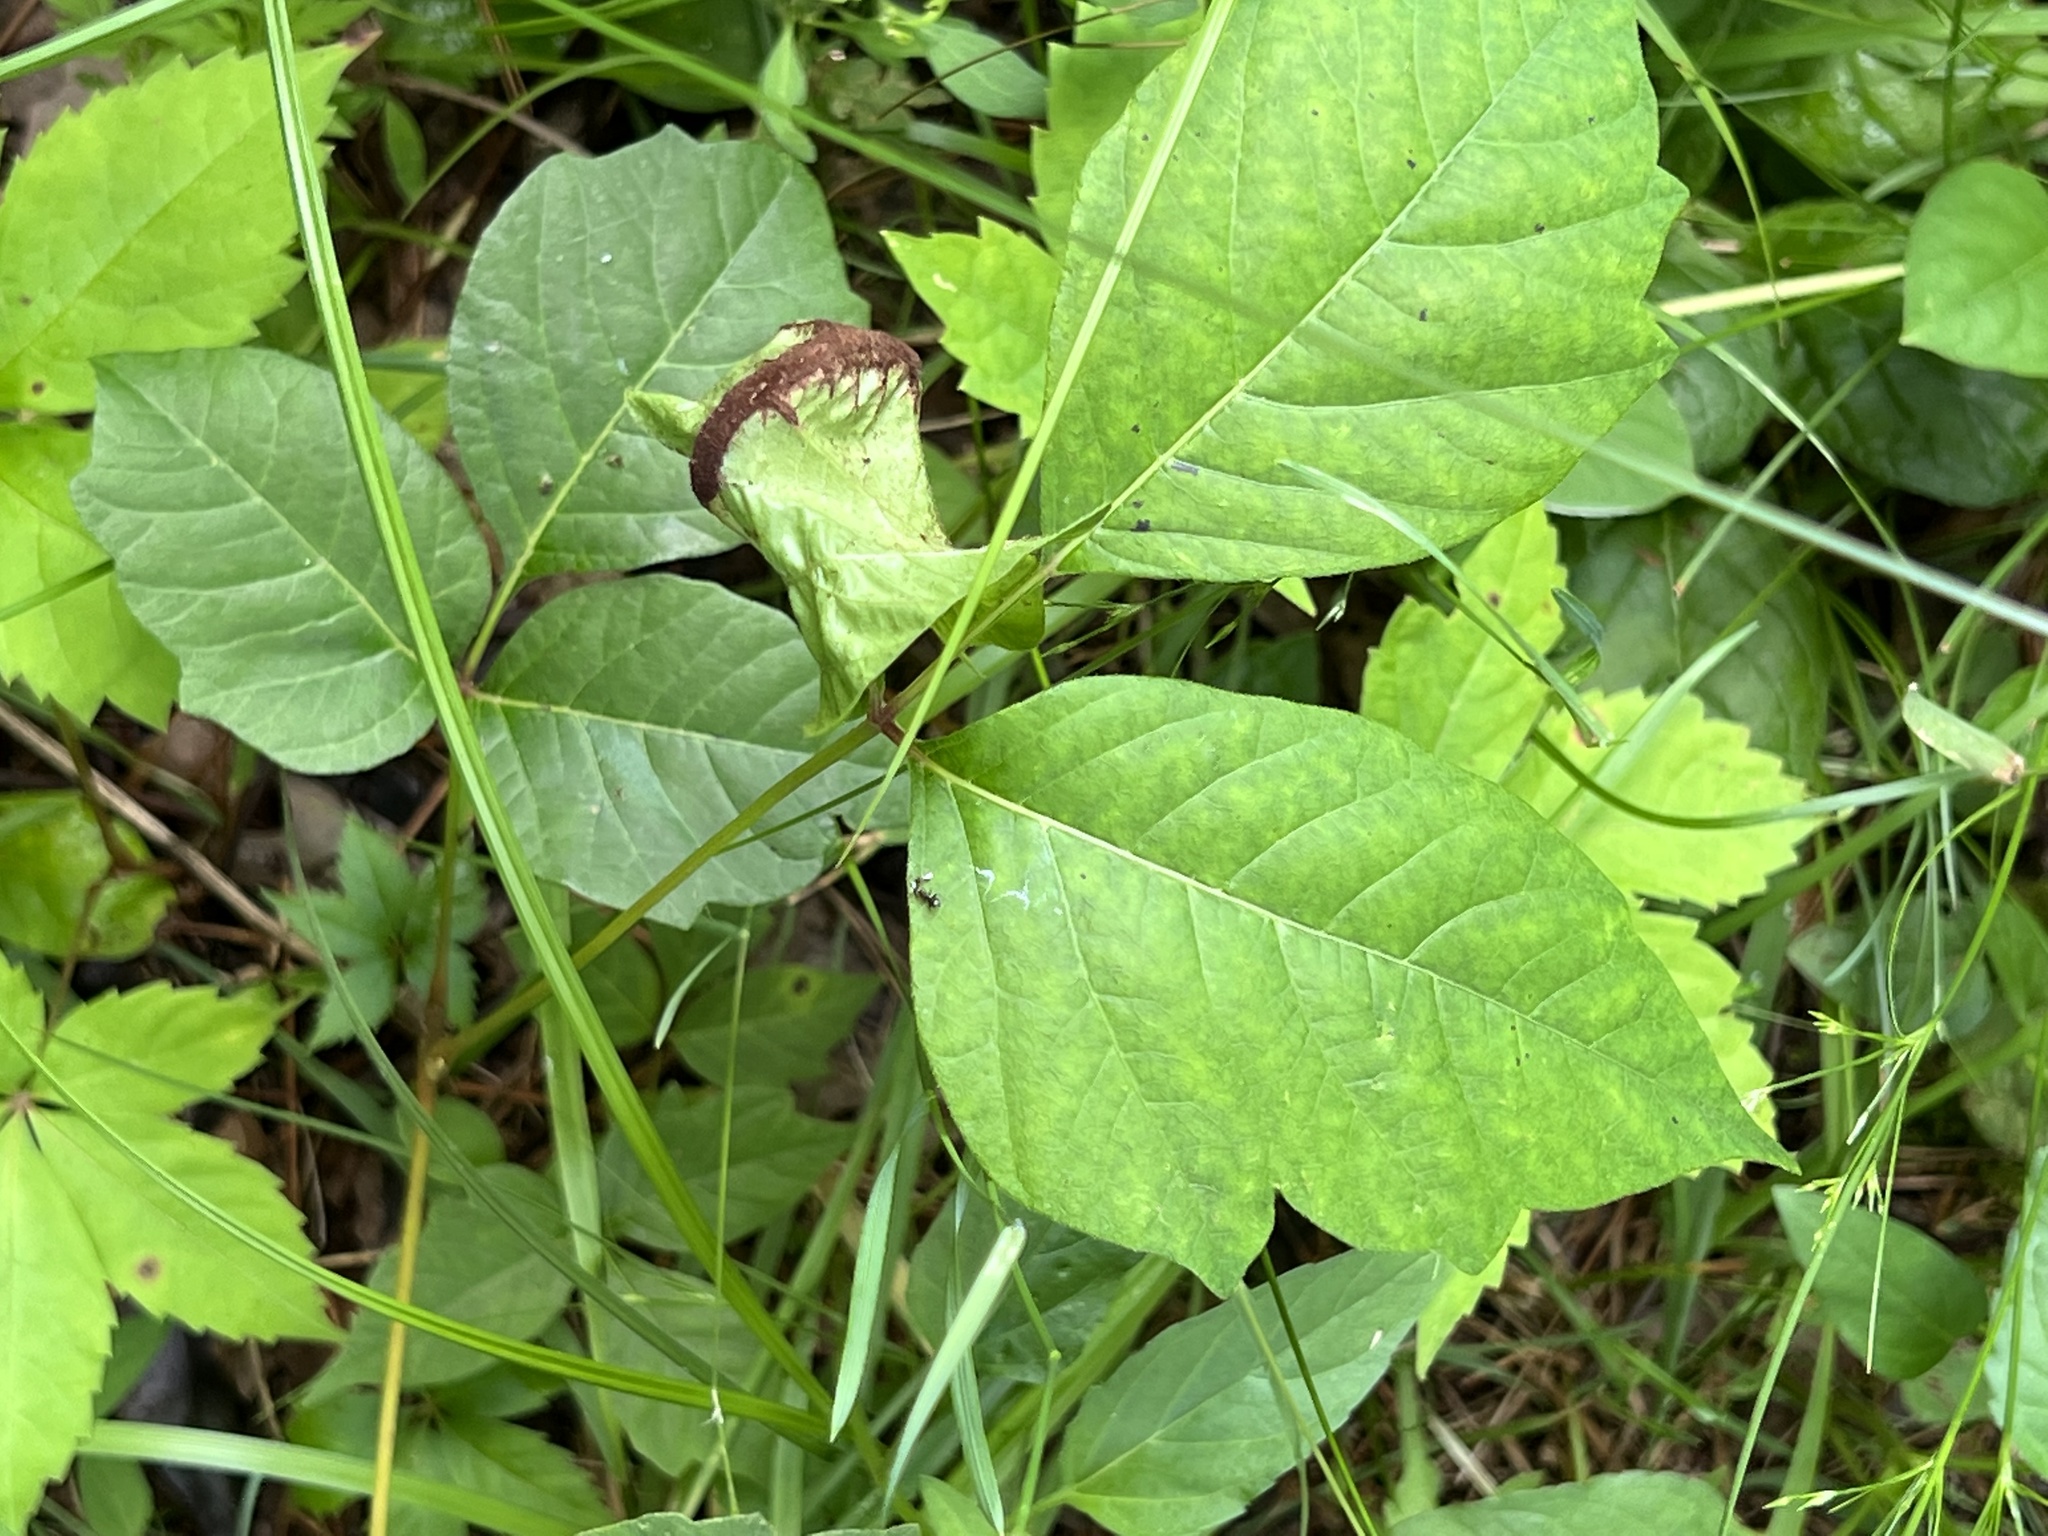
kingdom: Fungi
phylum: Basidiomycota
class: Pucciniomycetes
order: Pucciniales
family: Pileolariaceae
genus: Pileolaria
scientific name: Pileolaria brevipes
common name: Poison ivy rust
